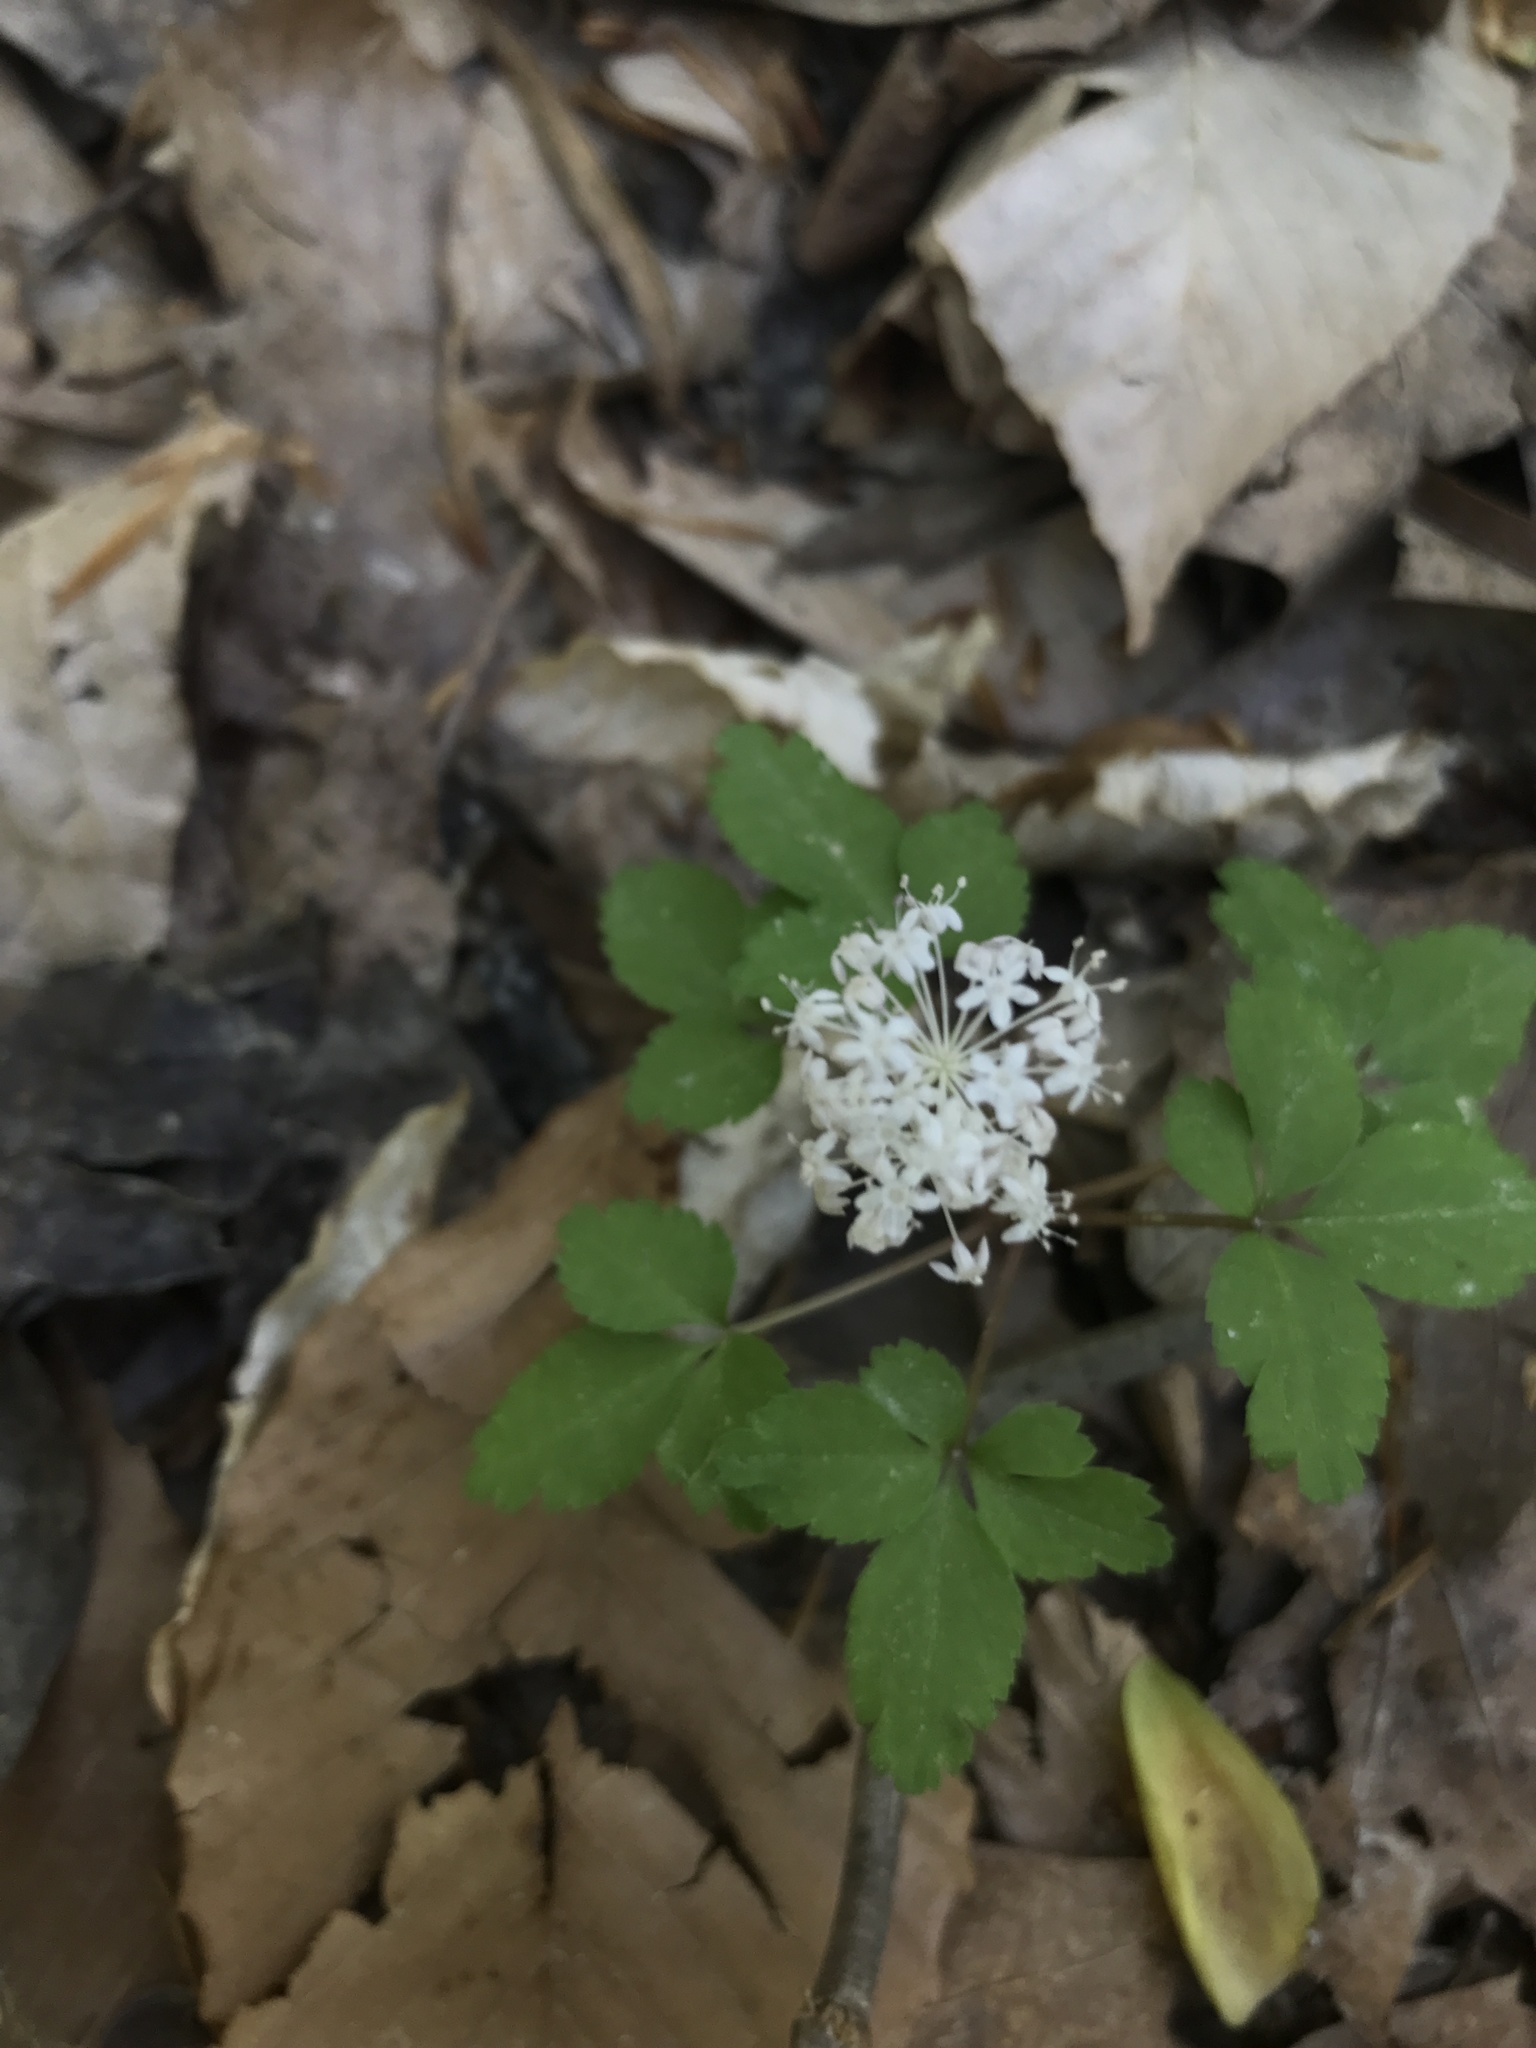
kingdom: Plantae
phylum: Tracheophyta
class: Magnoliopsida
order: Apiales
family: Araliaceae
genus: Panax
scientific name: Panax trifolius
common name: Dwarf ginseng
